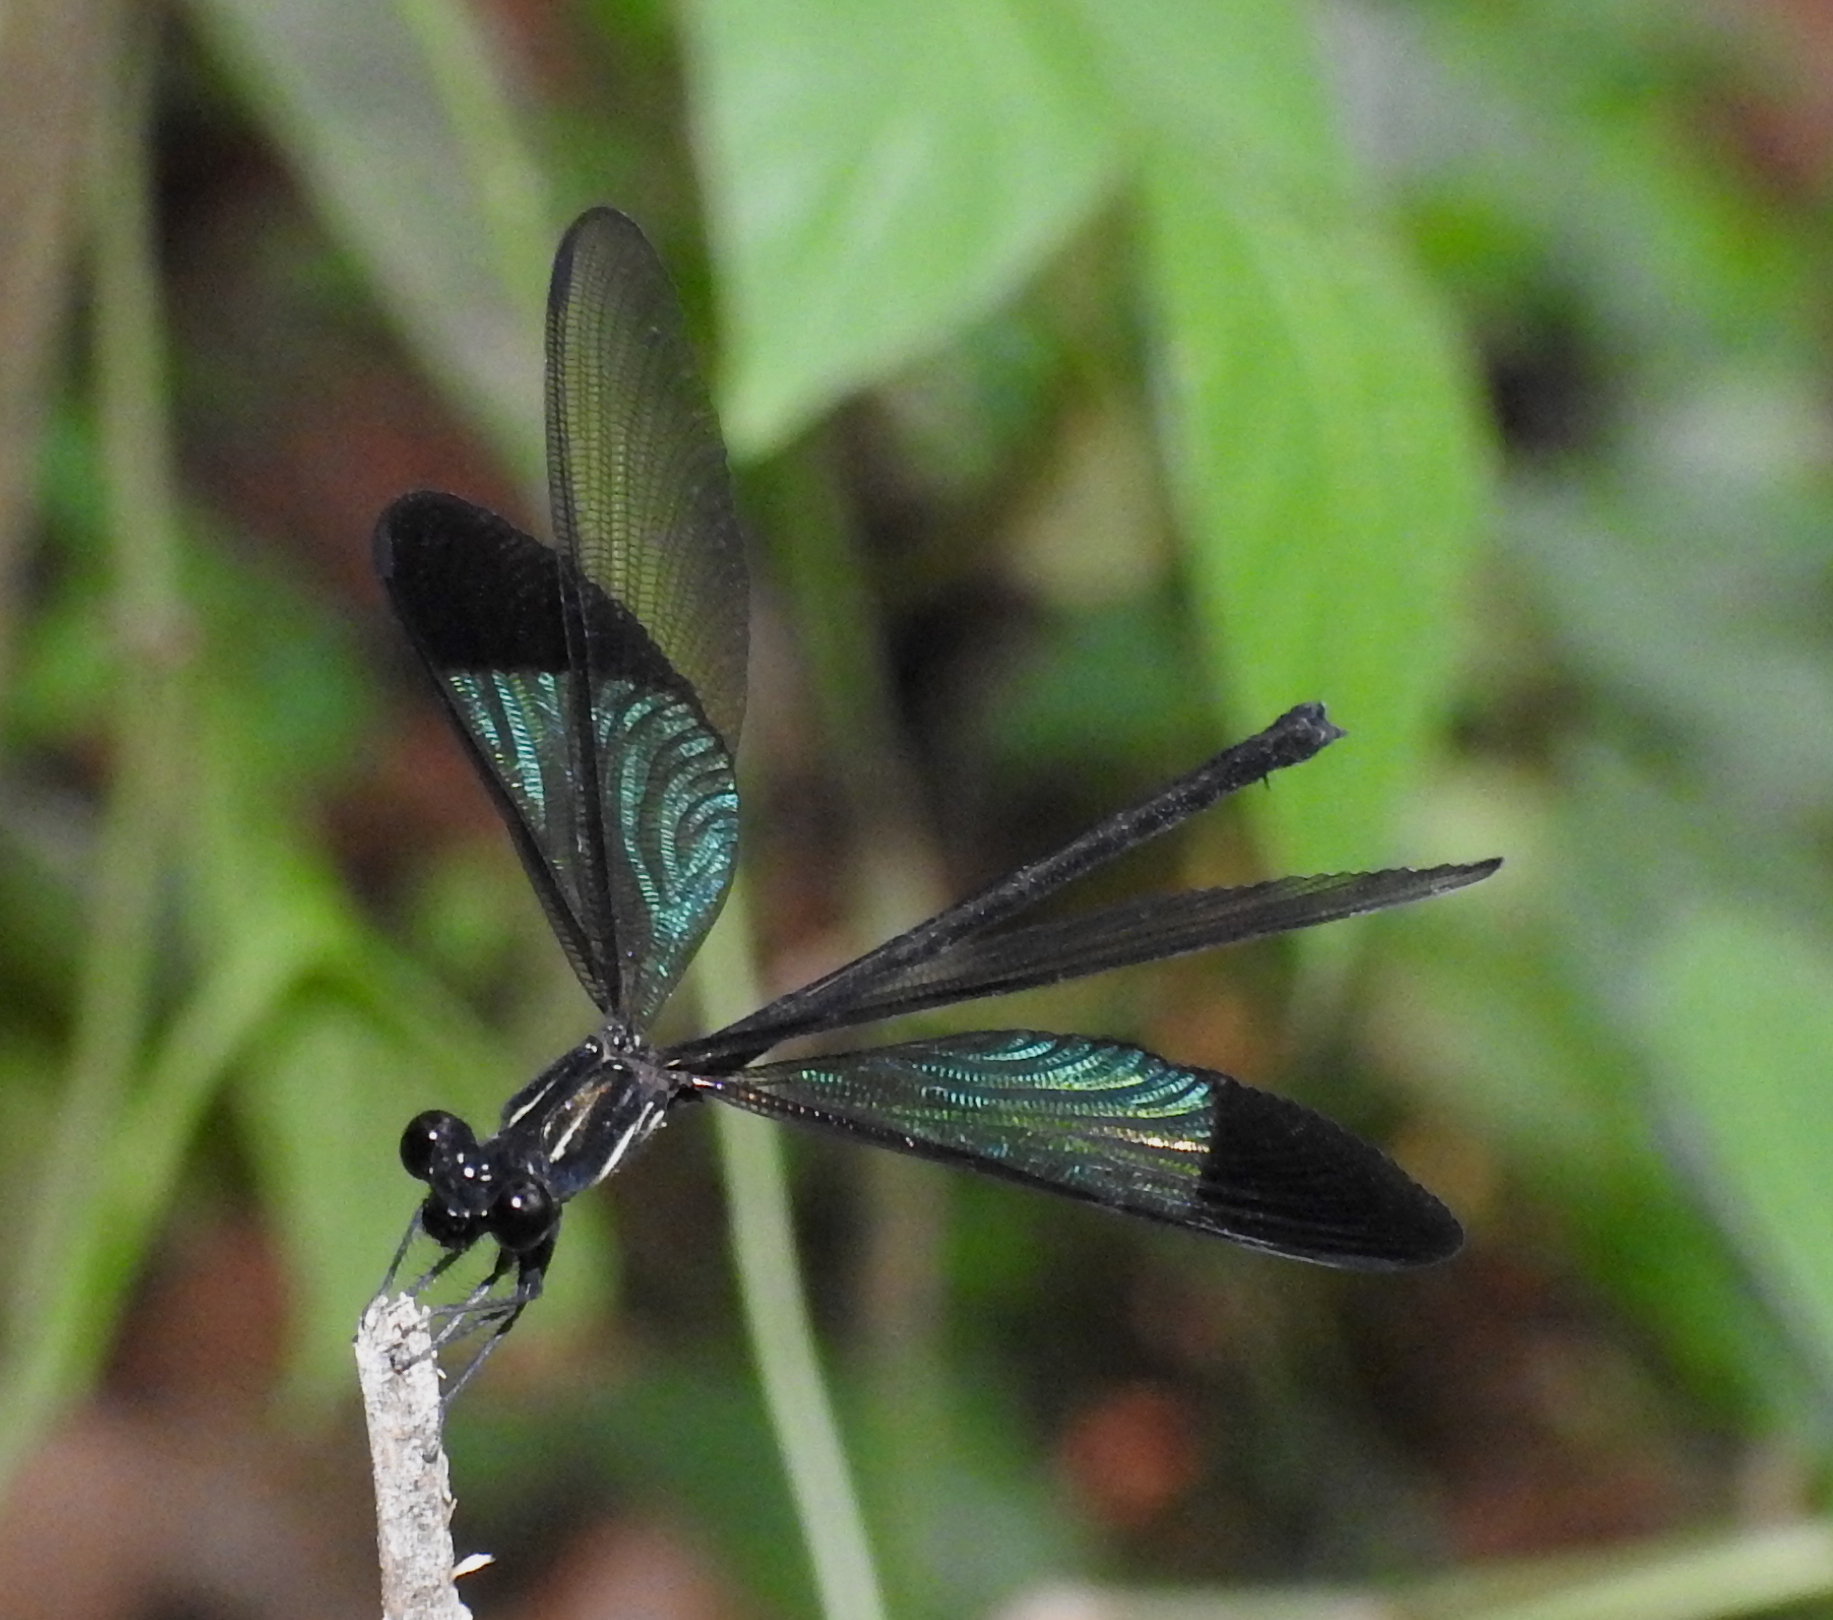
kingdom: Animalia
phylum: Arthropoda
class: Insecta
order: Odonata
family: Euphaeidae
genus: Euphaea
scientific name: Euphaea splendens
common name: Shining gossamerwing
